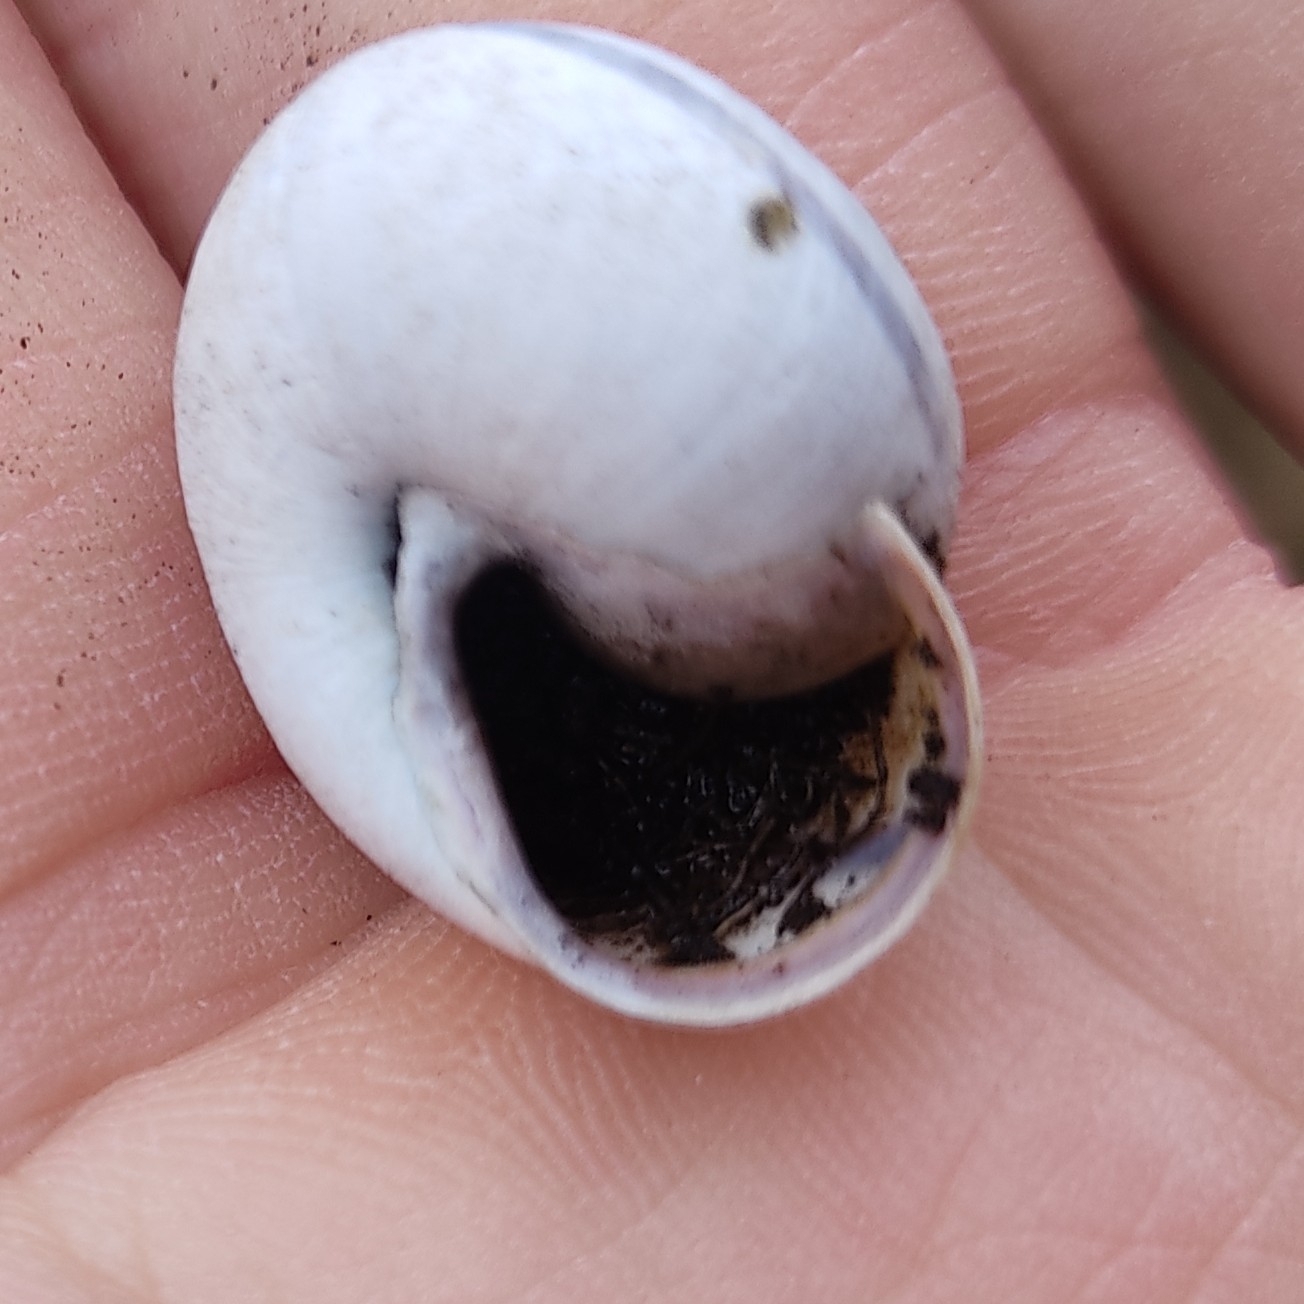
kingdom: Animalia
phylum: Mollusca
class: Gastropoda
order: Stylommatophora
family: Helicidae
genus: Cepaea
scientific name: Cepaea nemoralis
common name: Grovesnail
